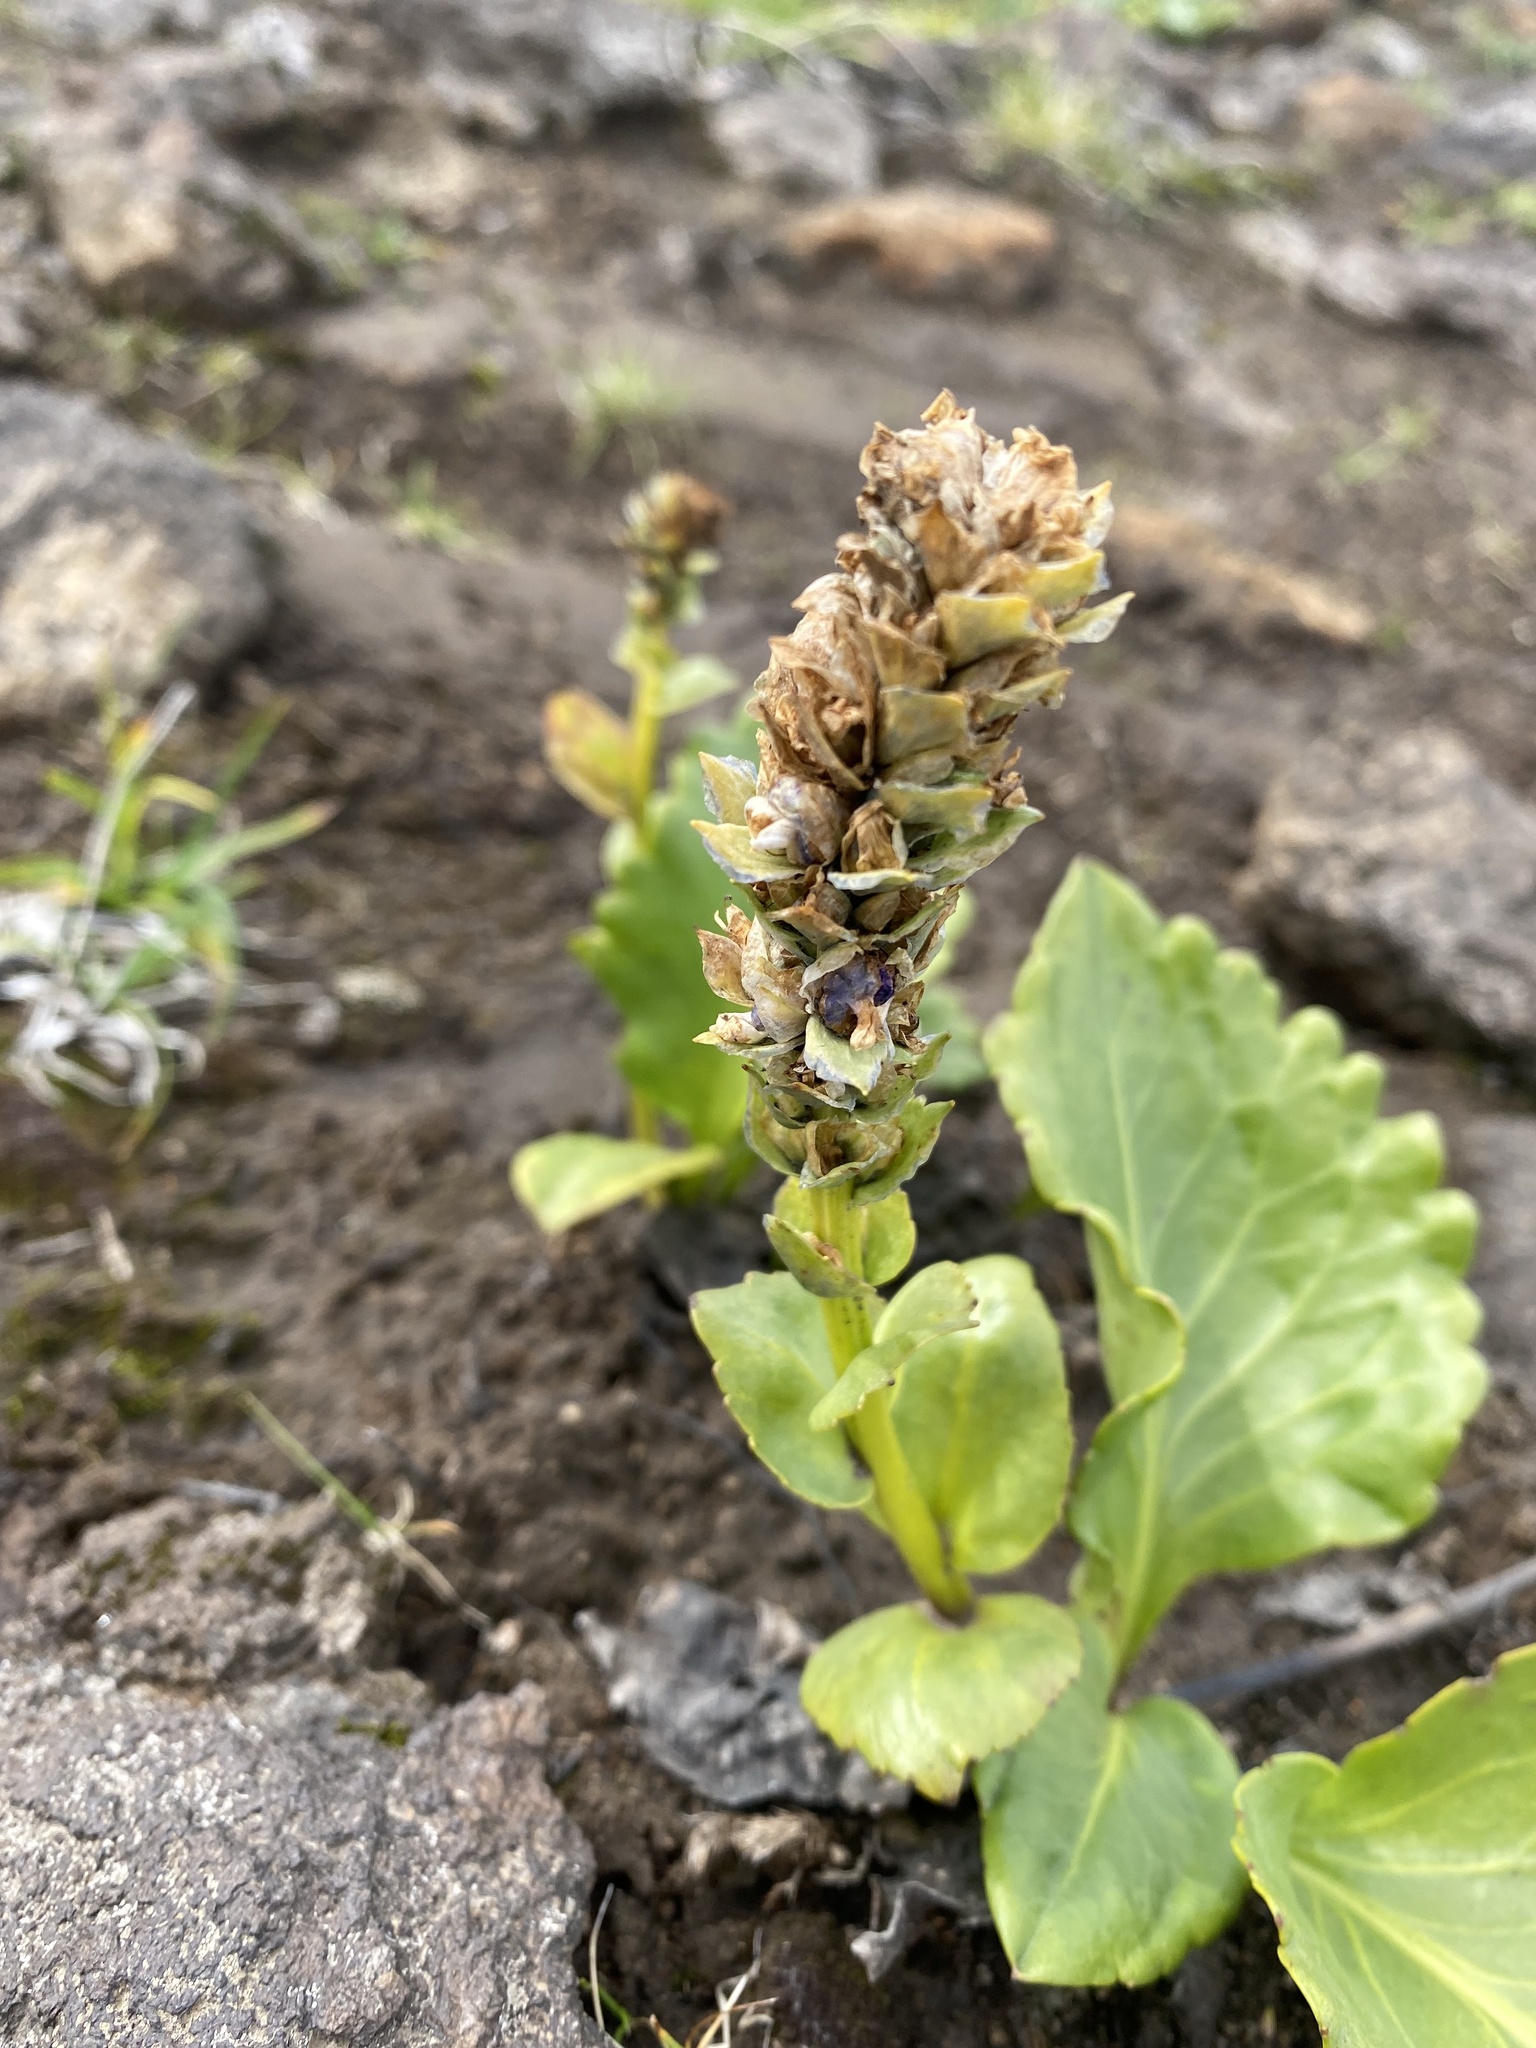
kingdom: Plantae
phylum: Tracheophyta
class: Magnoliopsida
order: Lamiales
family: Plantaginaceae
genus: Lagotis
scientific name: Lagotis glauca
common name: Glaucous weaselsnout
